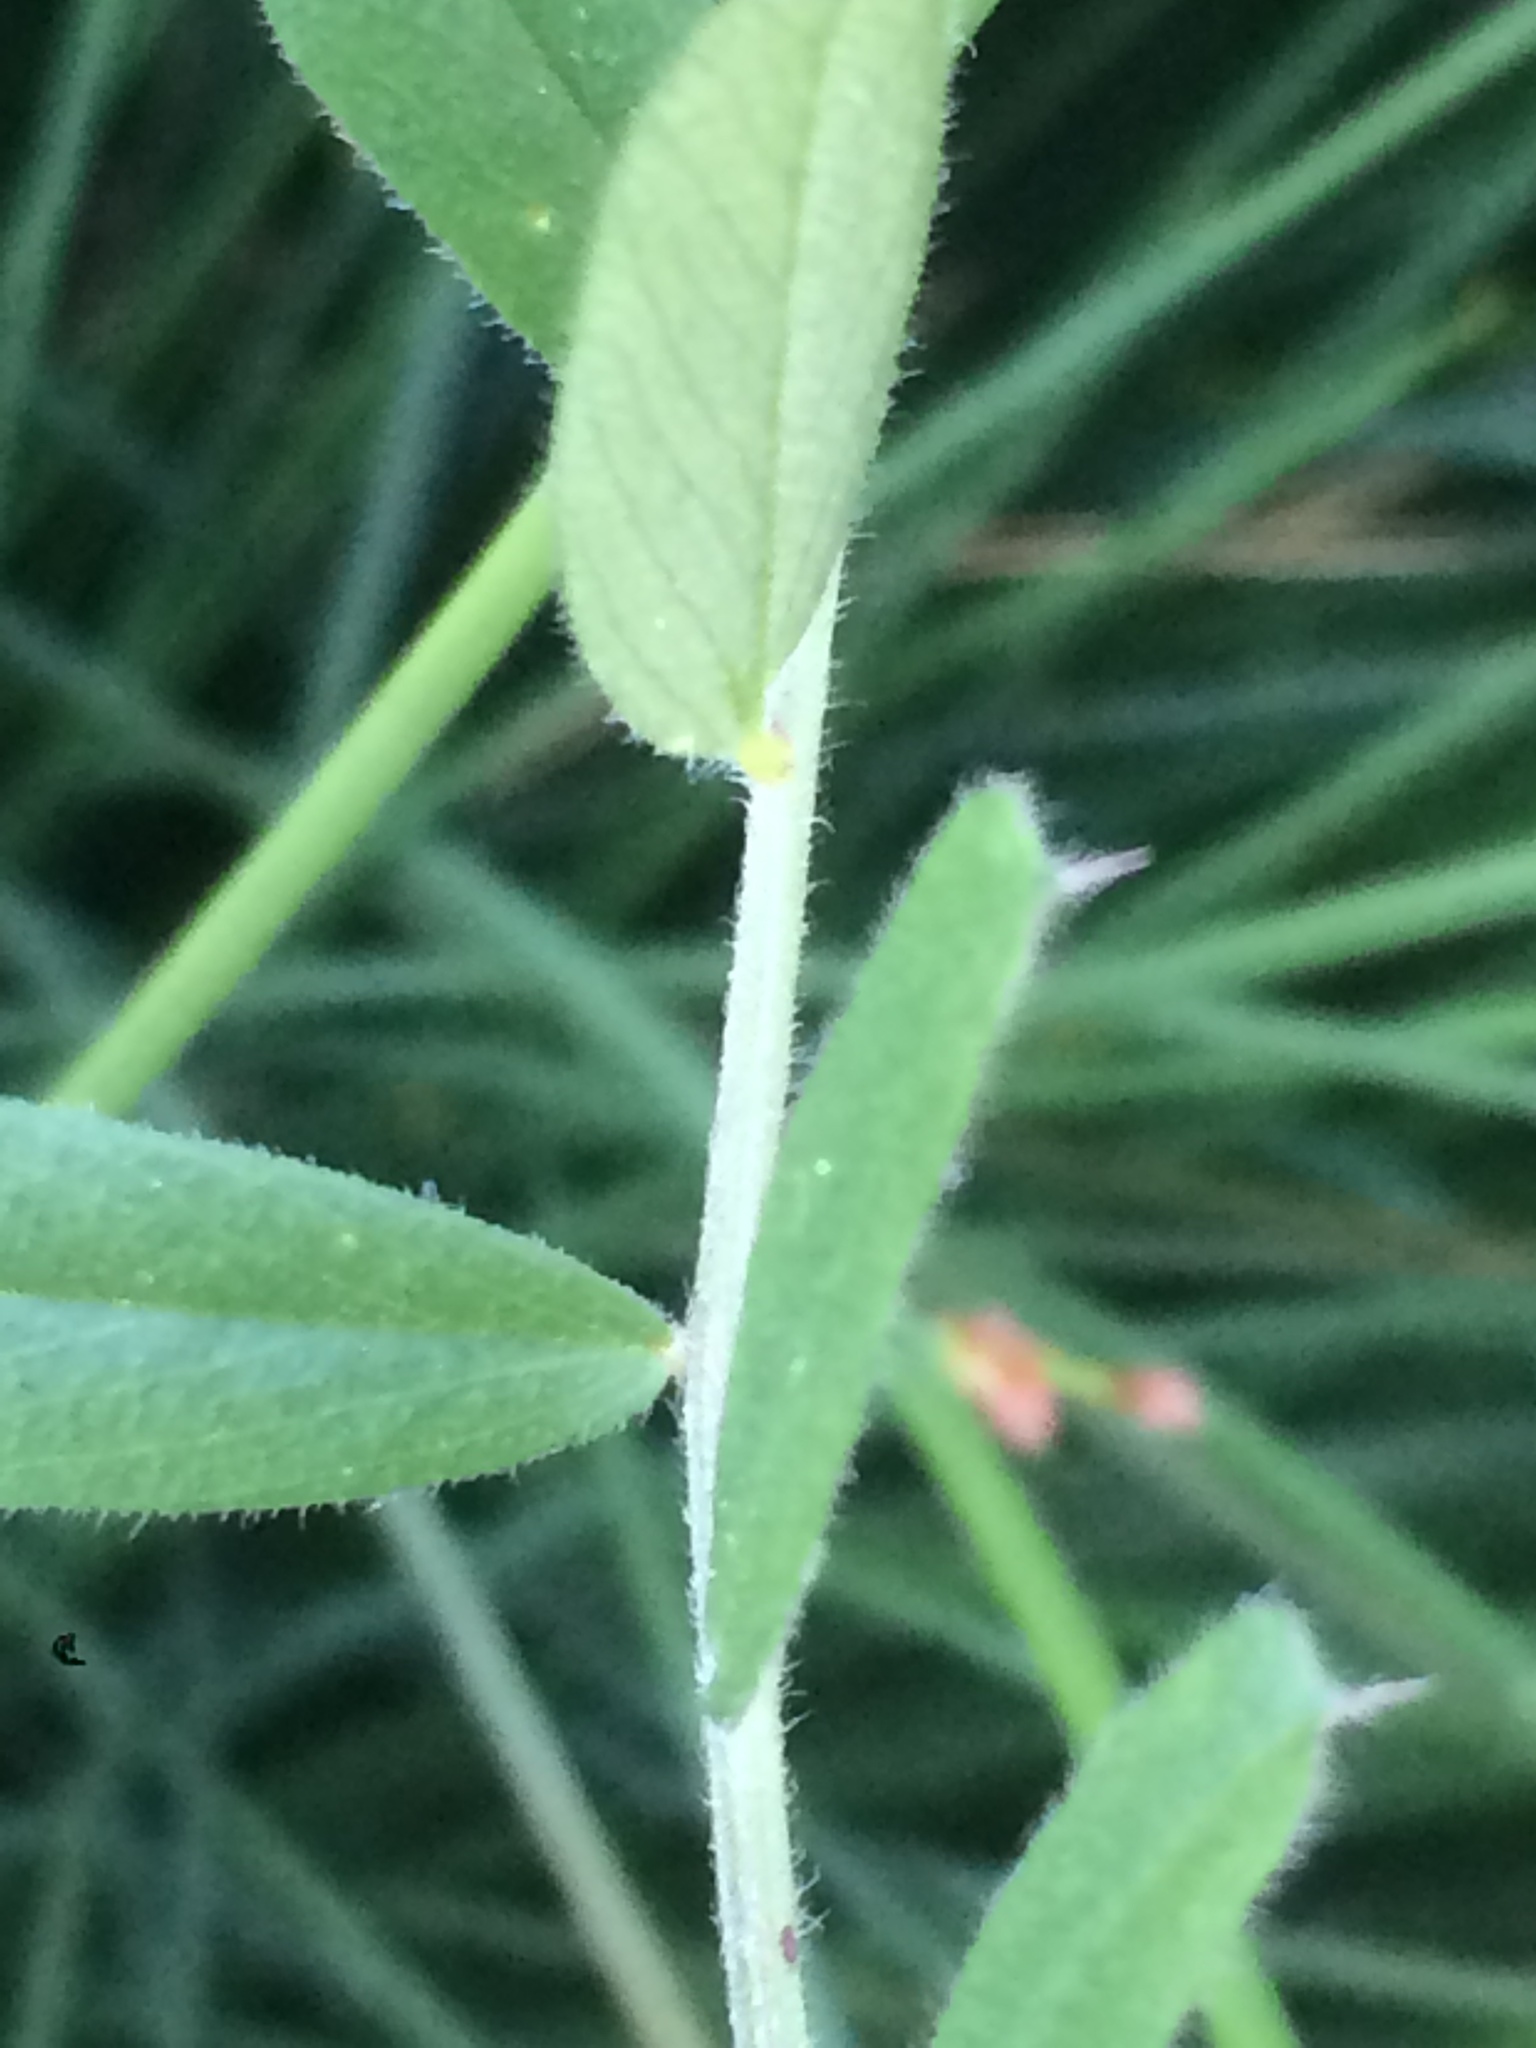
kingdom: Plantae
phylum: Tracheophyta
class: Magnoliopsida
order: Fabales
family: Fabaceae
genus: Vicia
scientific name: Vicia sativa
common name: Garden vetch
